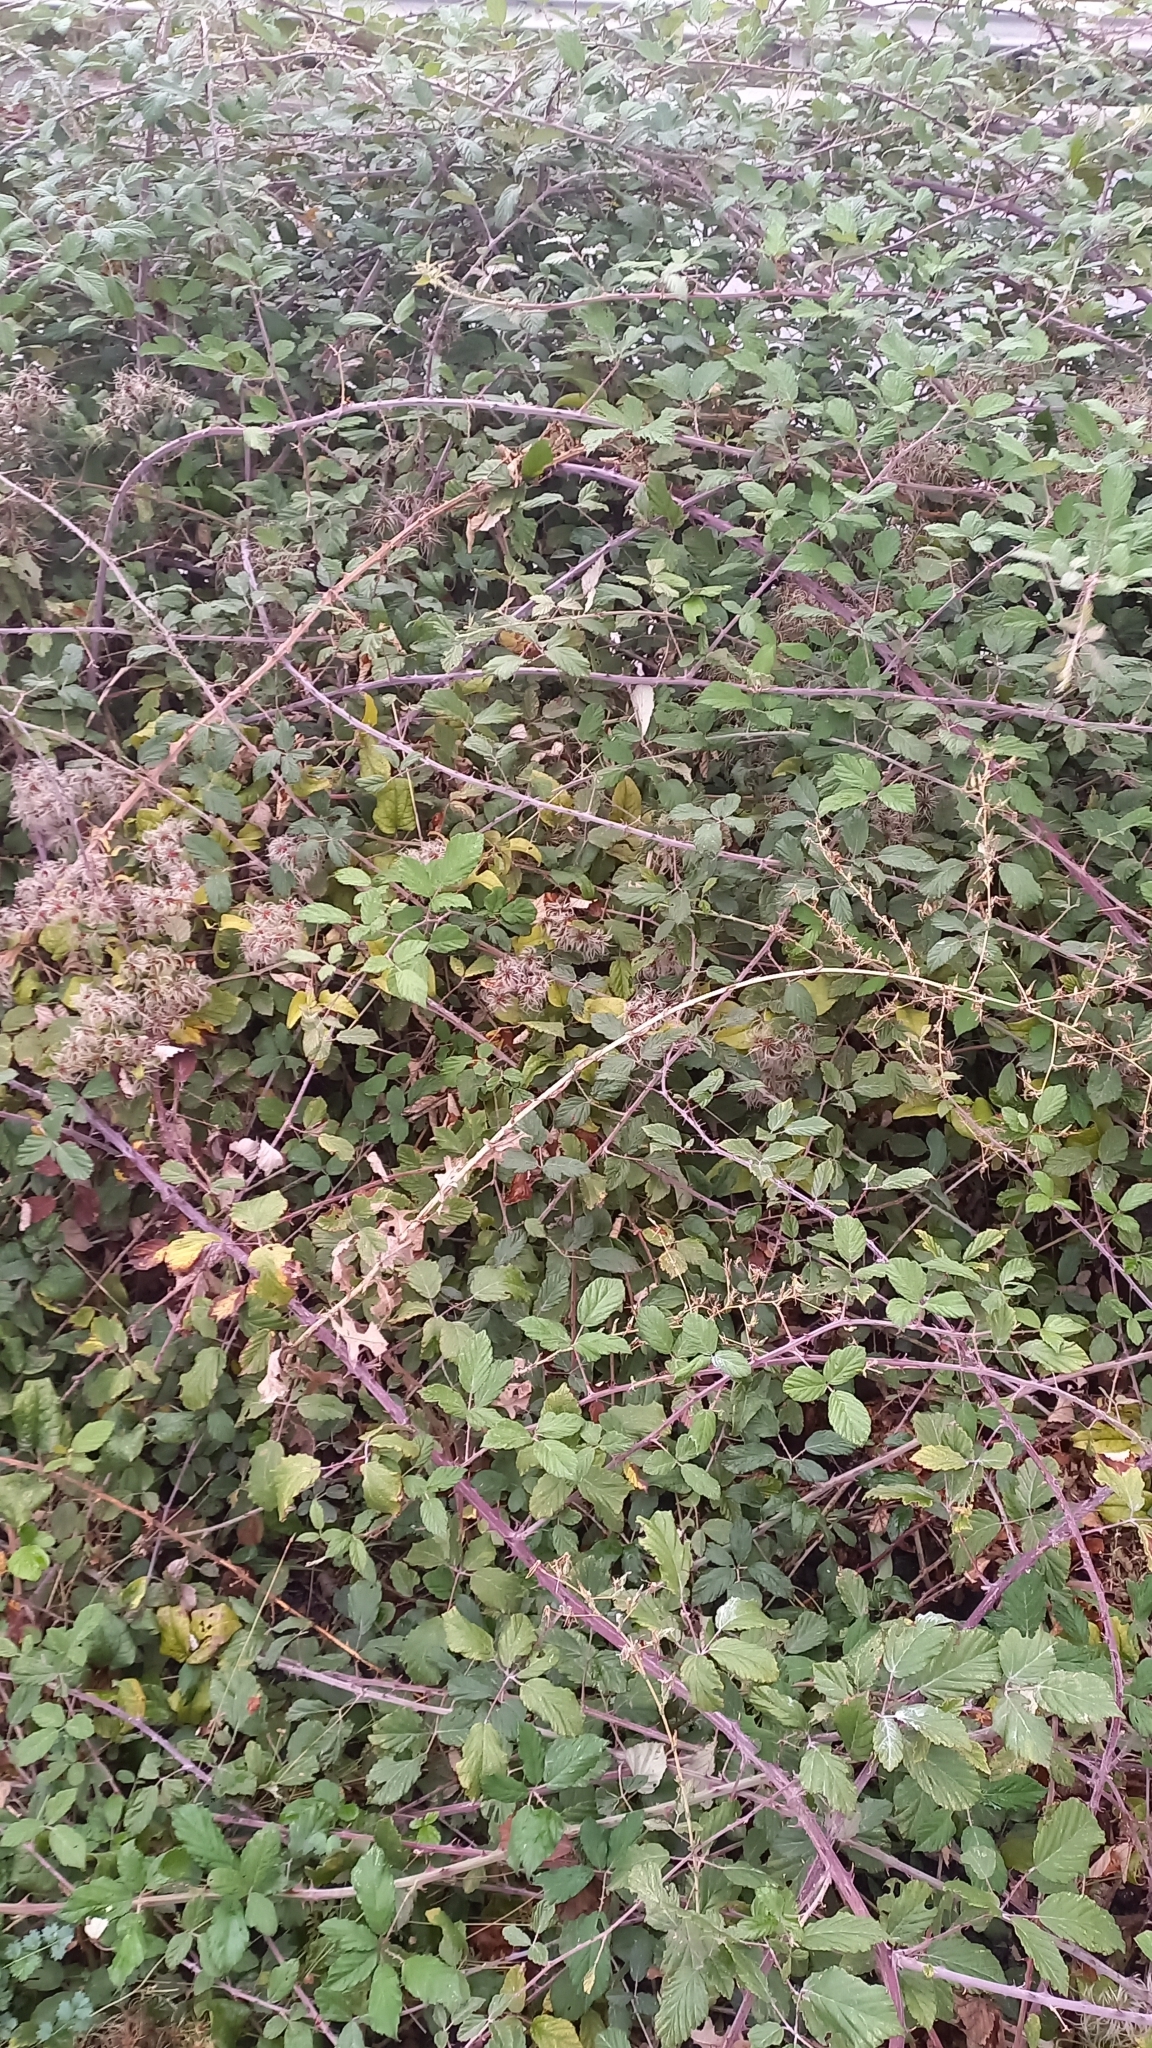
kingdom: Plantae
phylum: Tracheophyta
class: Magnoliopsida
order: Ranunculales
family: Ranunculaceae
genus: Clematis
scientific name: Clematis vitalba
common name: Evergreen clematis
